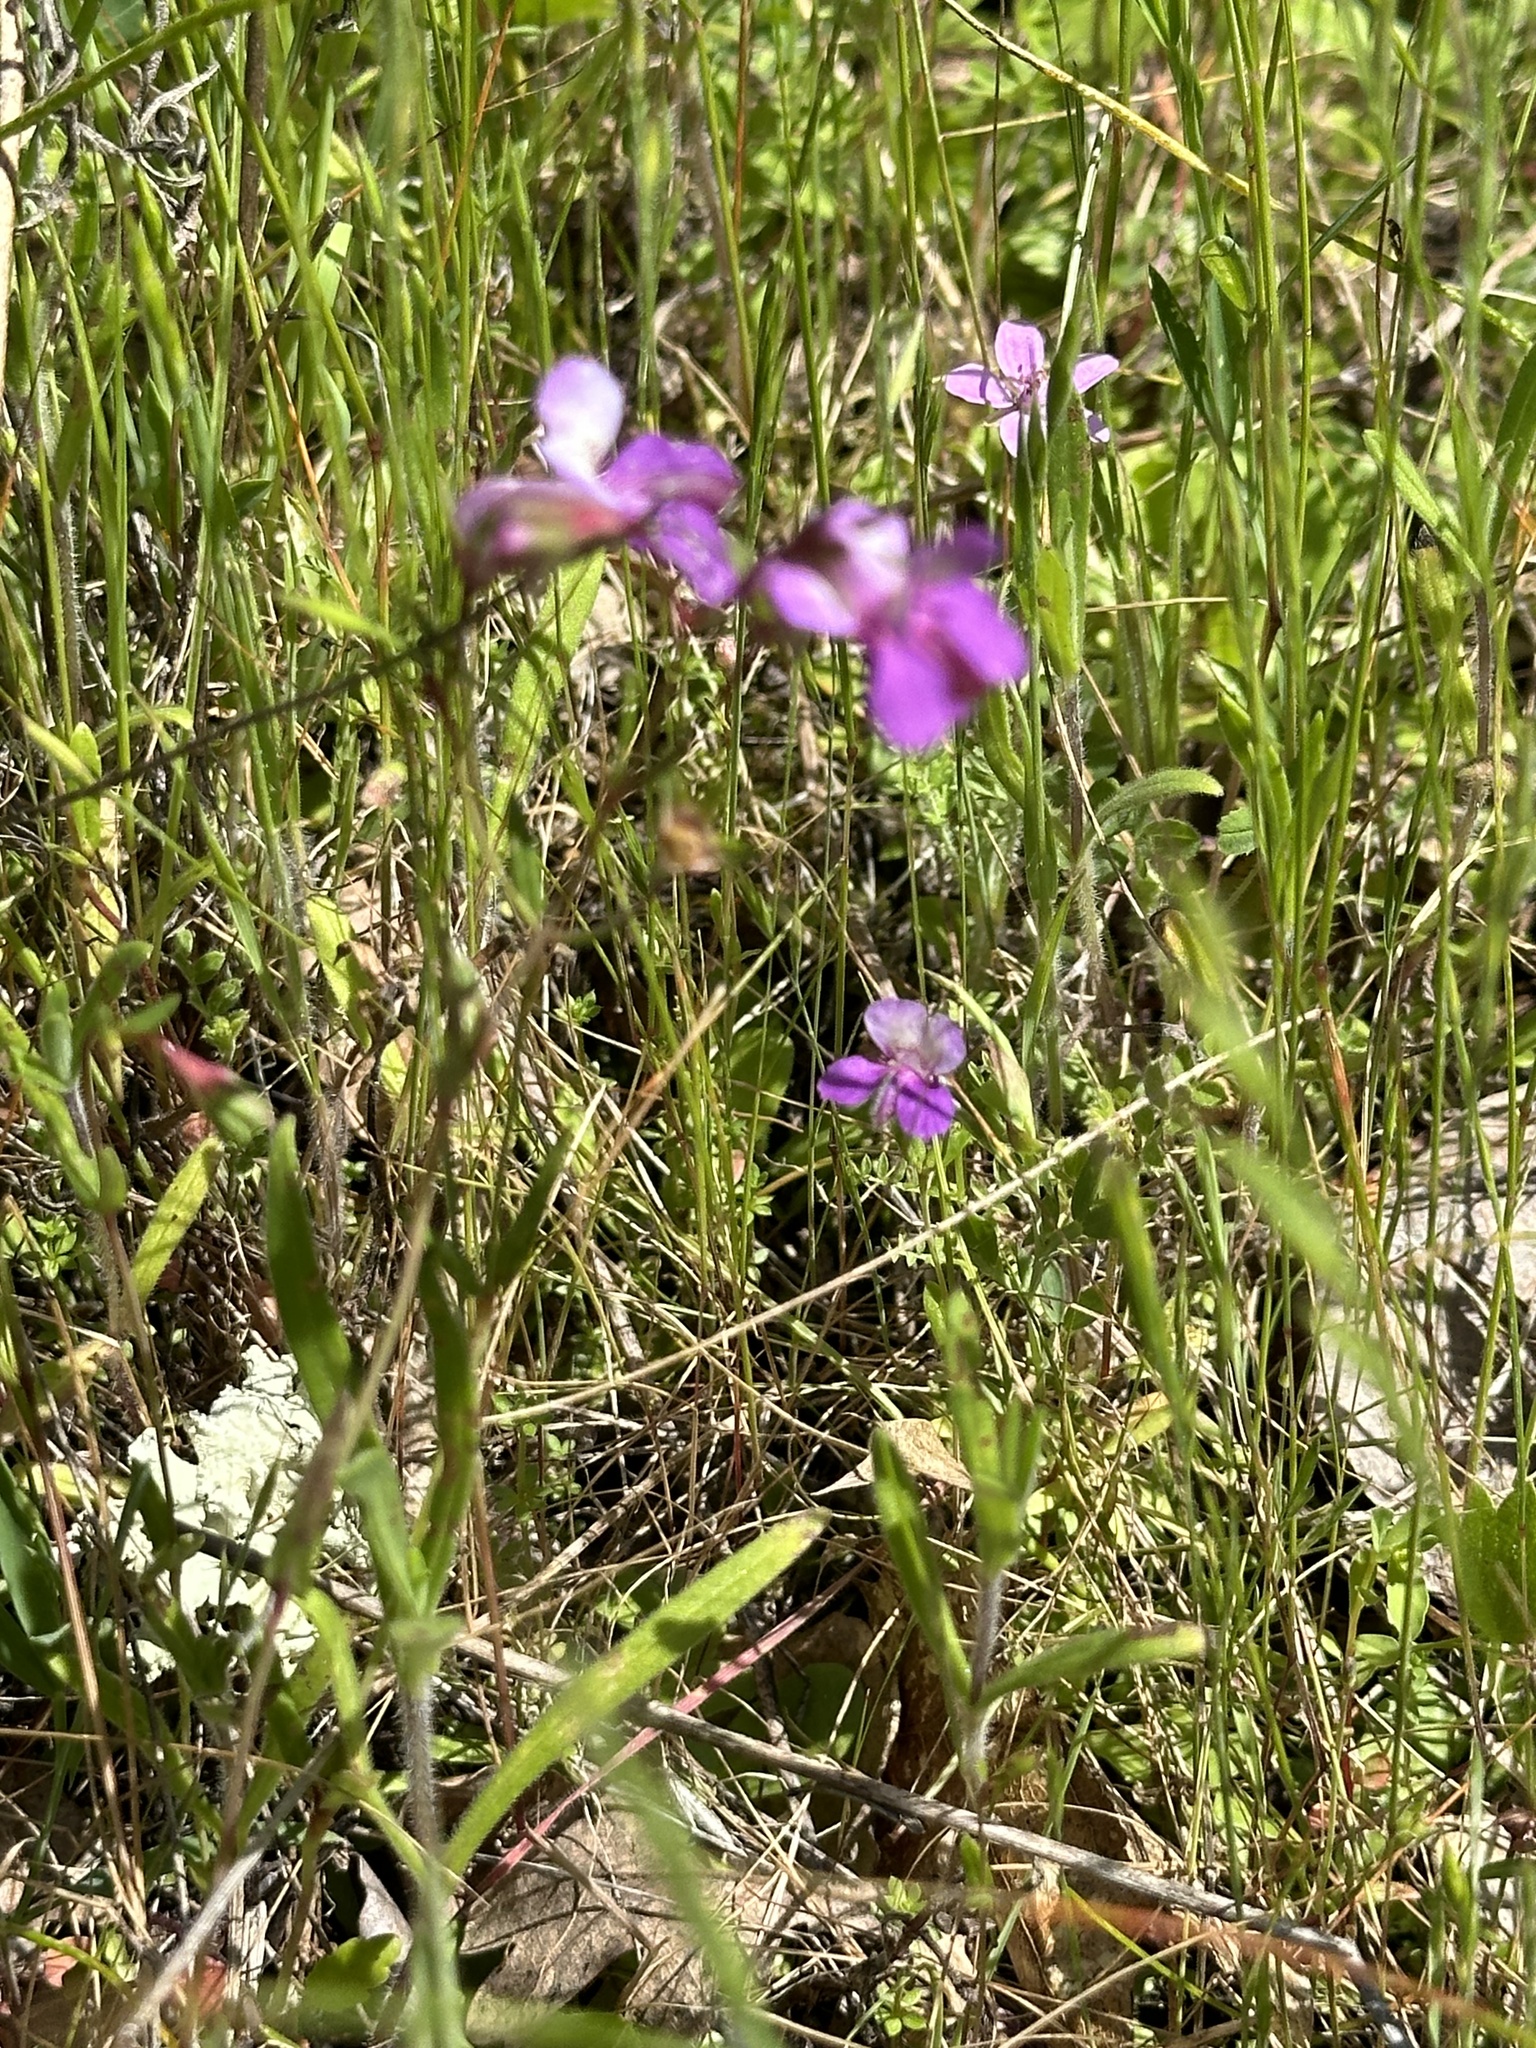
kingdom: Plantae
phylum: Tracheophyta
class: Magnoliopsida
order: Lamiales
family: Plantaginaceae
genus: Collinsia
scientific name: Collinsia sparsiflora
